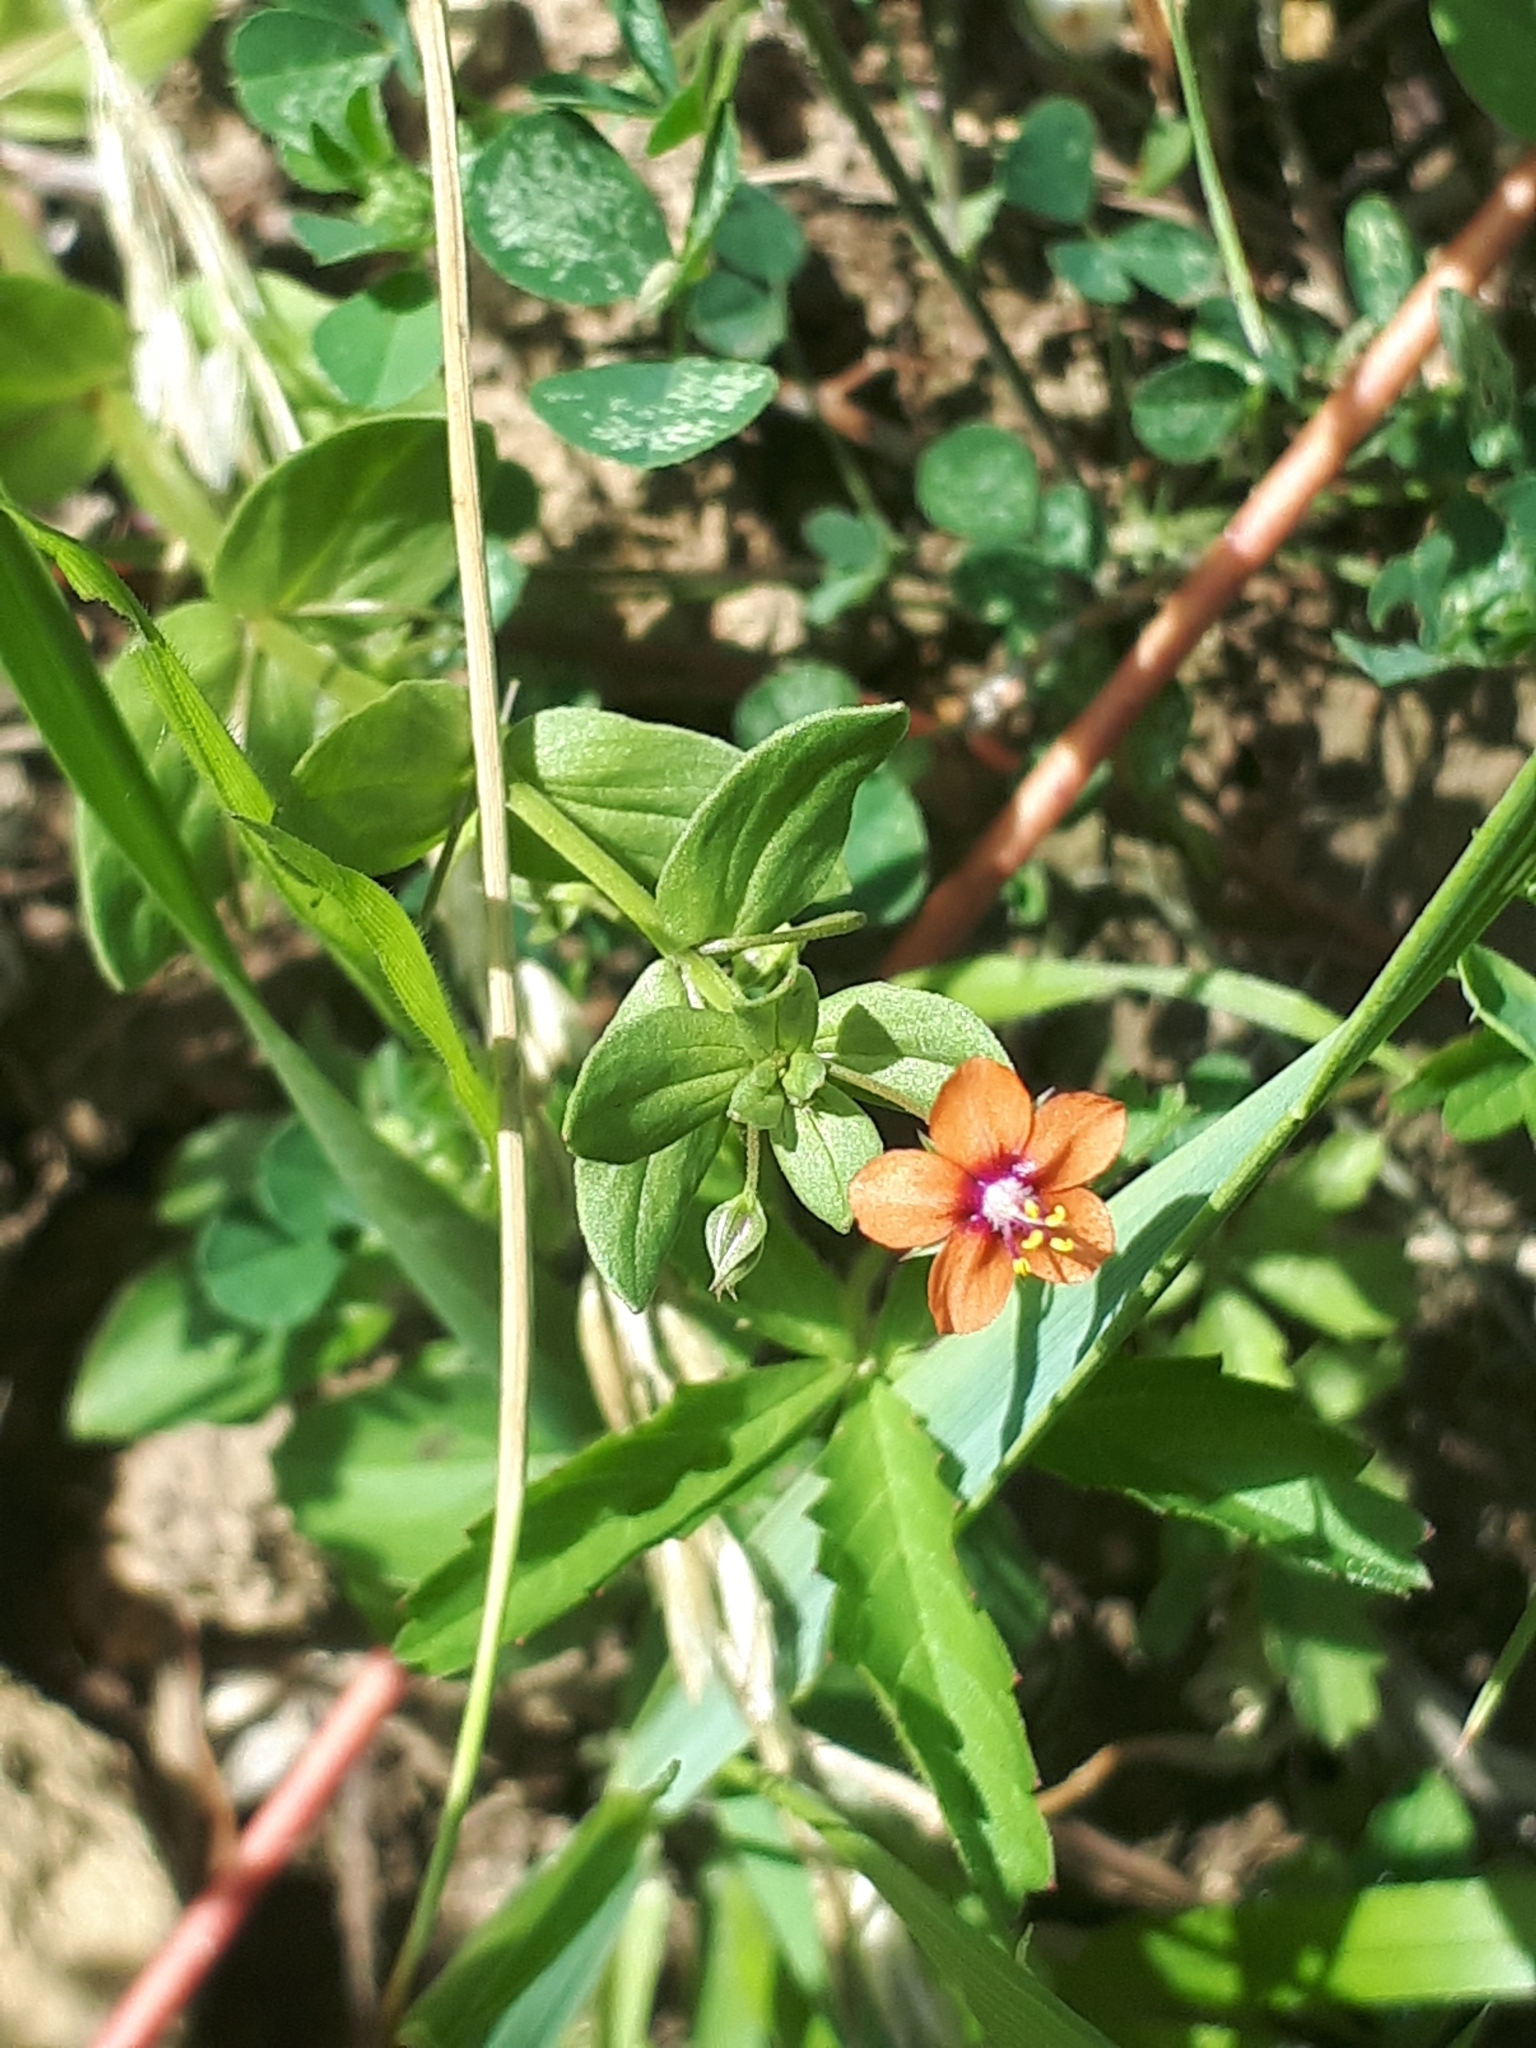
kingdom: Plantae
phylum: Tracheophyta
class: Magnoliopsida
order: Ericales
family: Primulaceae
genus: Lysimachia
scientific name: Lysimachia arvensis
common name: Scarlet pimpernel
